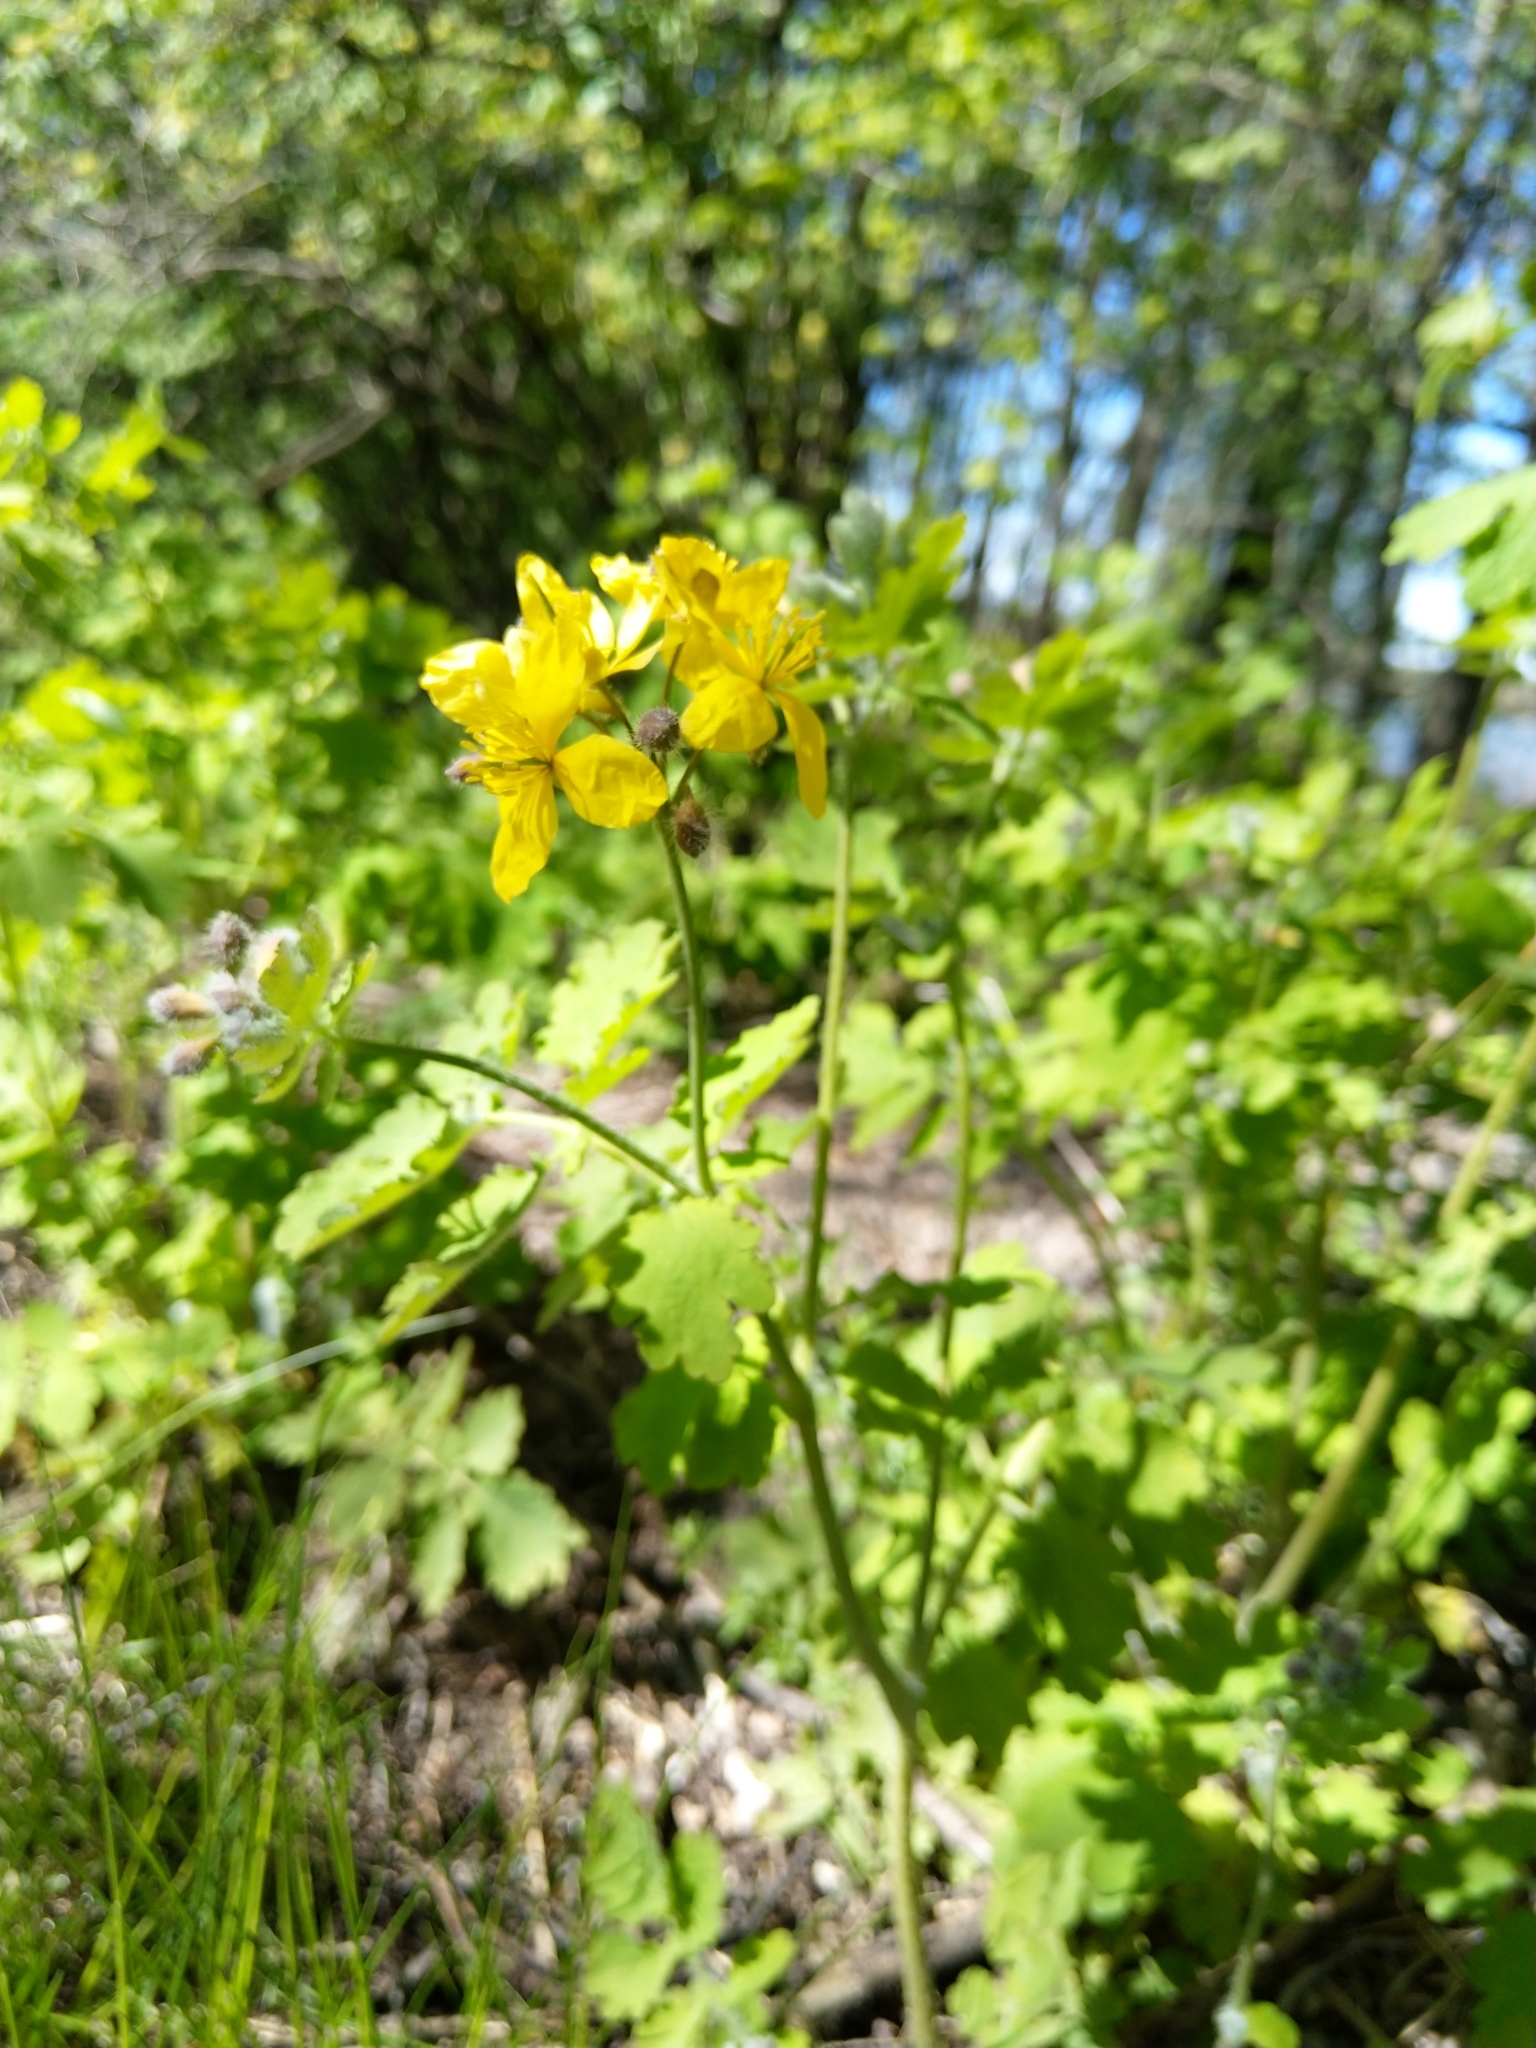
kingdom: Plantae
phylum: Tracheophyta
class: Magnoliopsida
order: Ranunculales
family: Papaveraceae
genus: Chelidonium
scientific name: Chelidonium majus
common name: Greater celandine
